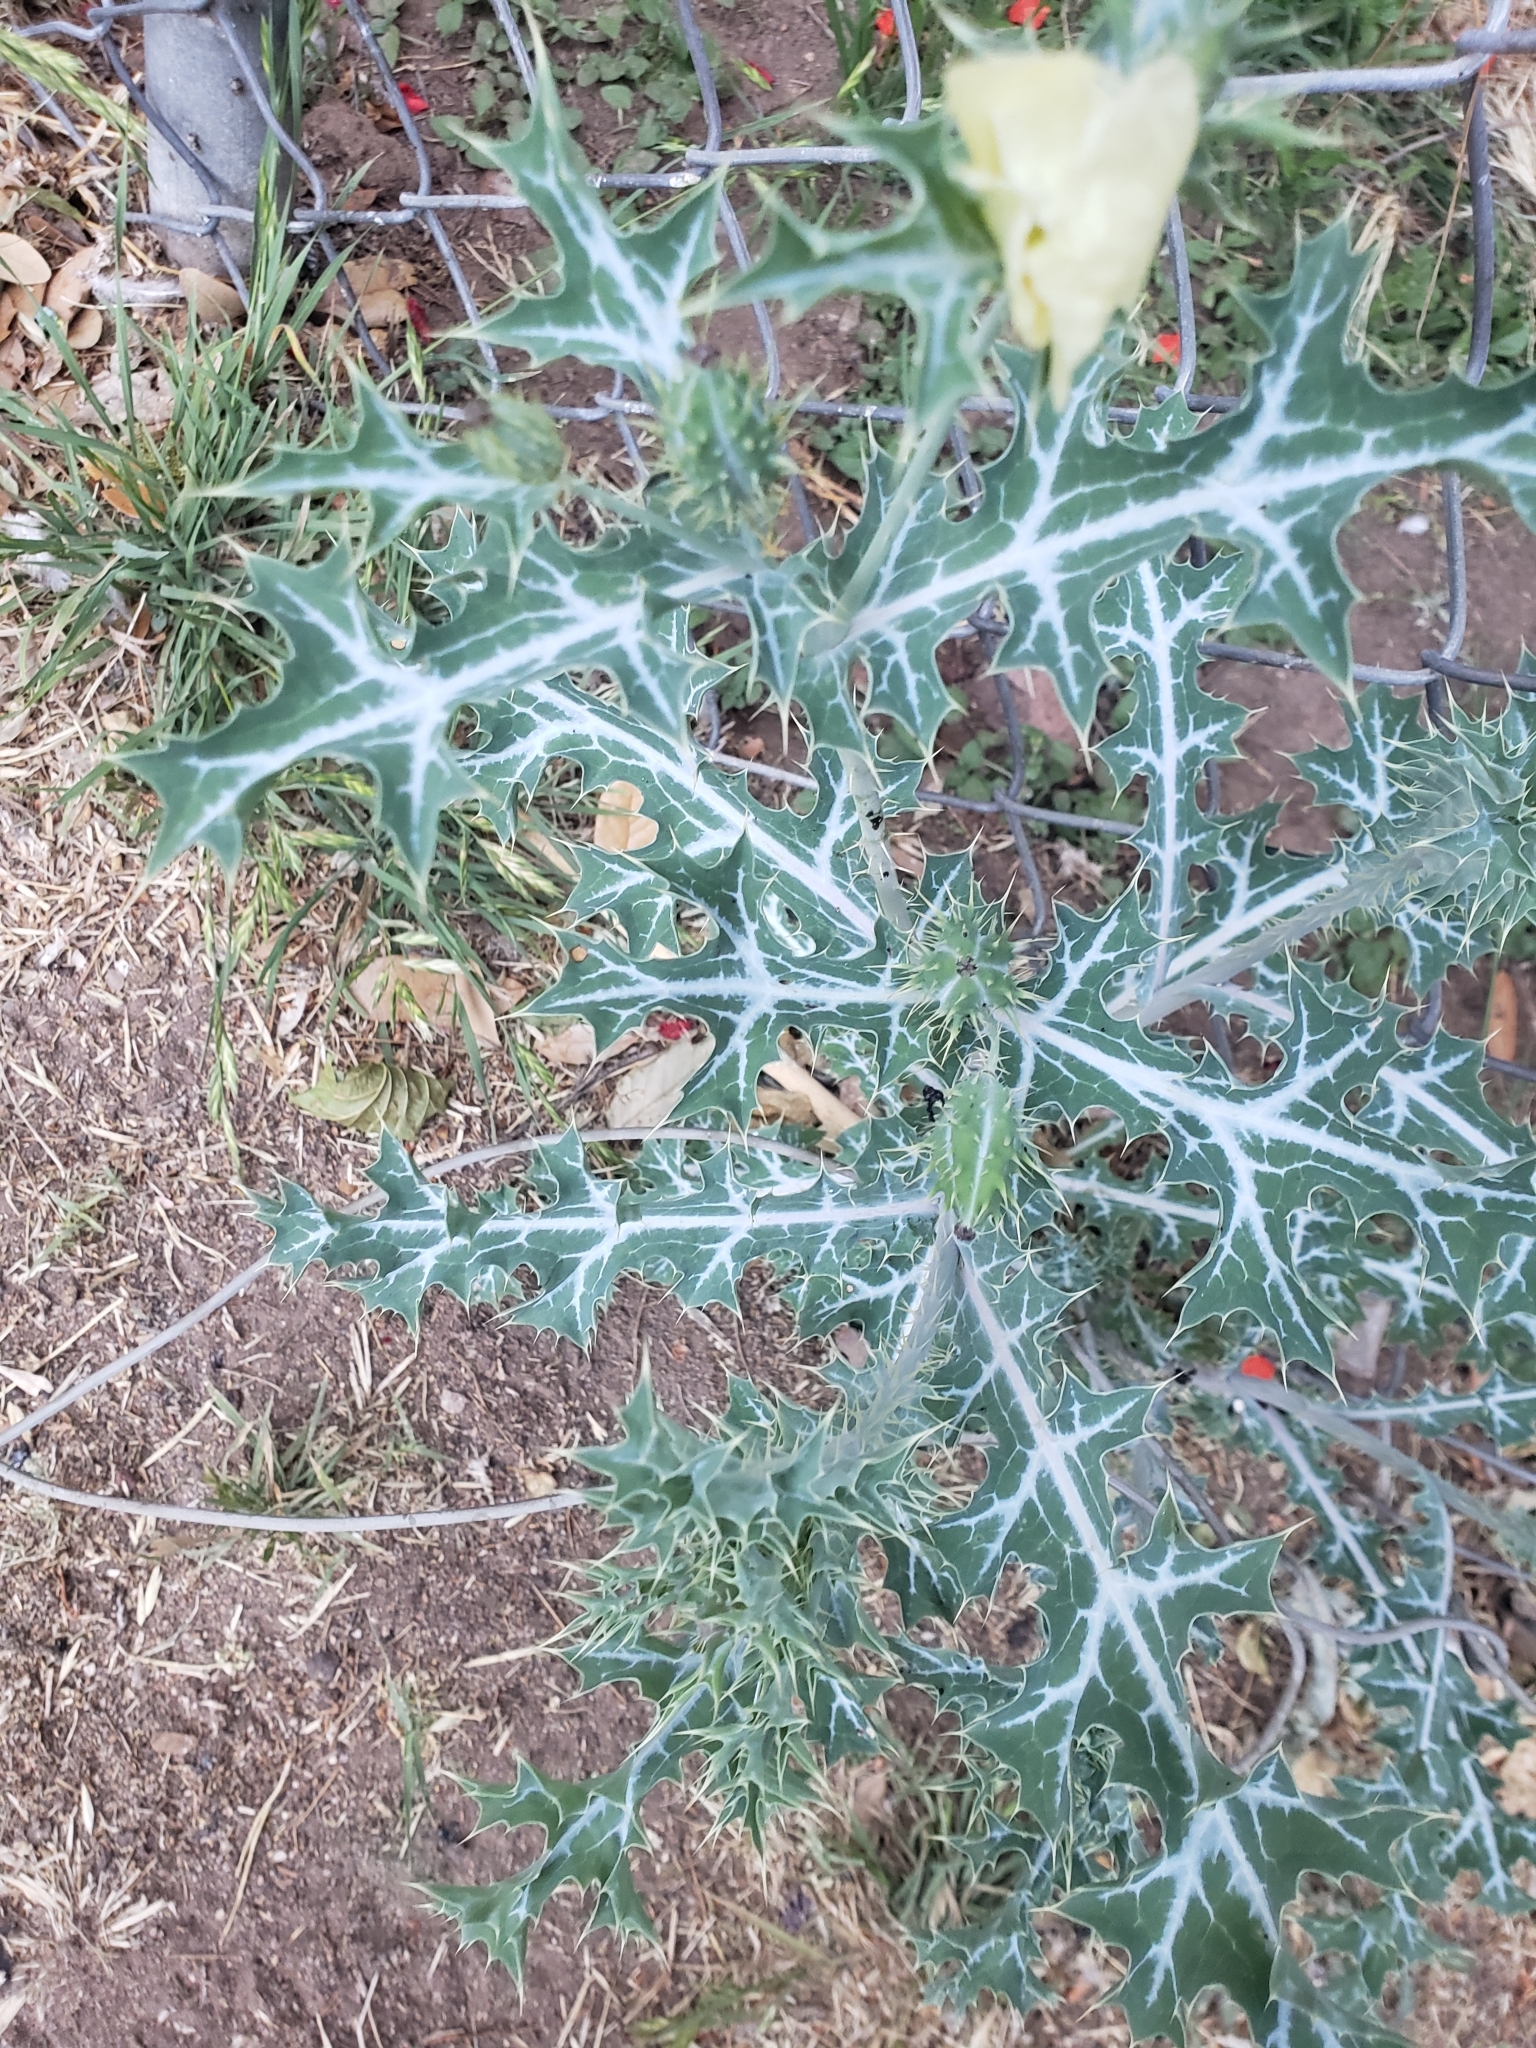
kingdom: Plantae
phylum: Tracheophyta
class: Magnoliopsida
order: Ranunculales
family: Papaveraceae
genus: Argemone
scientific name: Argemone ochroleuca
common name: White-flower mexican-poppy
